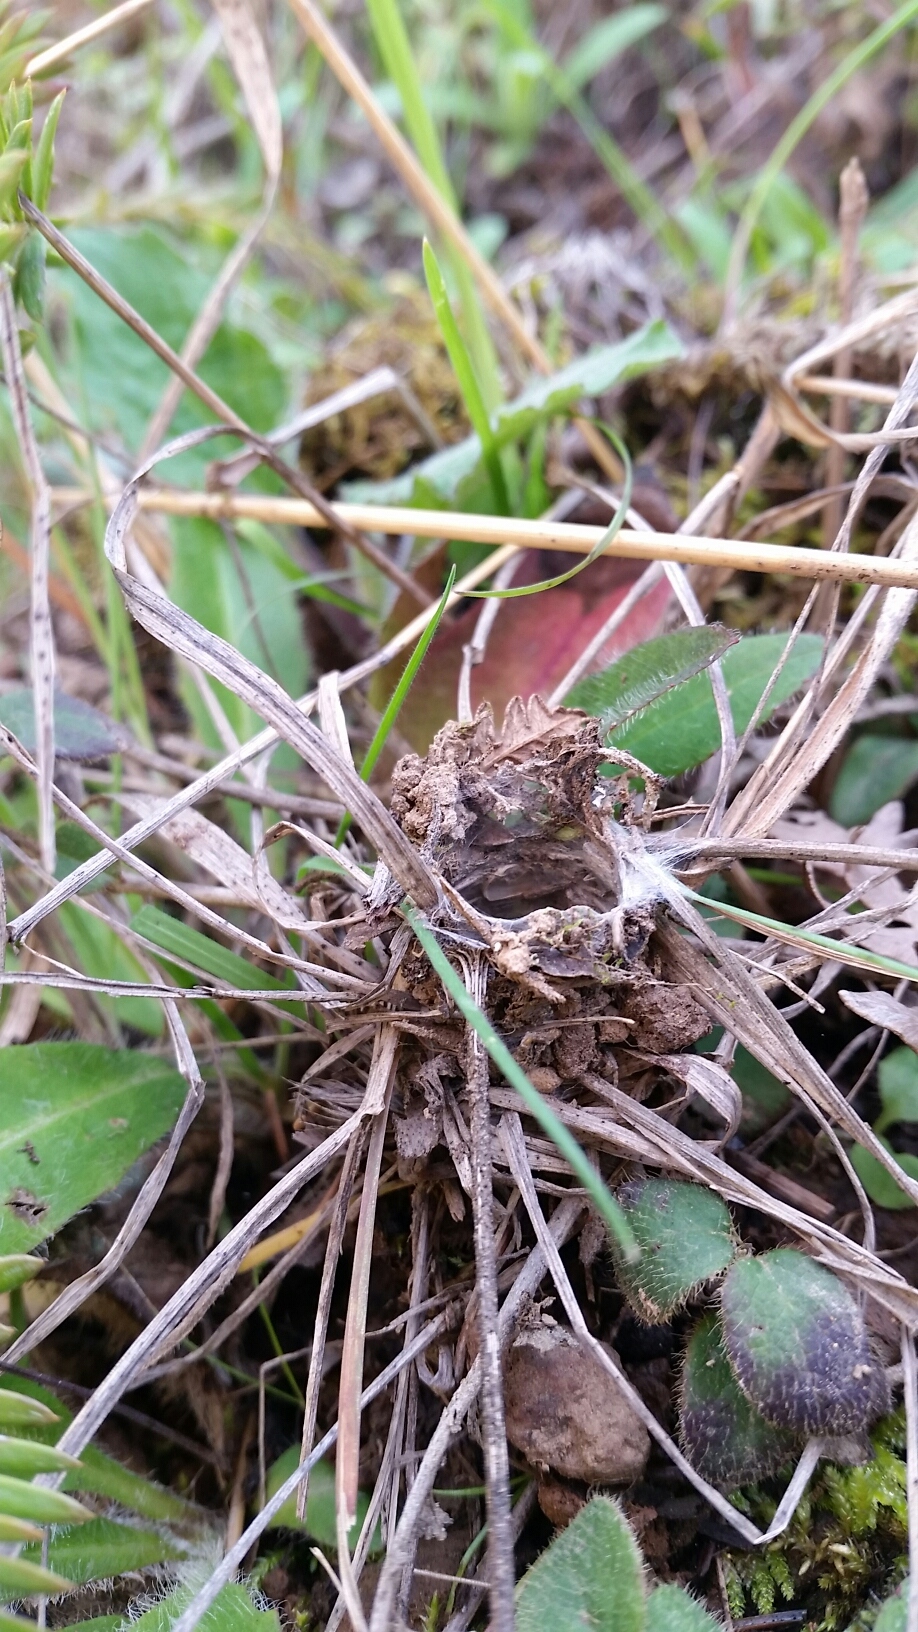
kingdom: Animalia
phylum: Arthropoda
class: Arachnida
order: Araneae
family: Antrodiaetidae
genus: Atypoides
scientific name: Atypoides riversi
